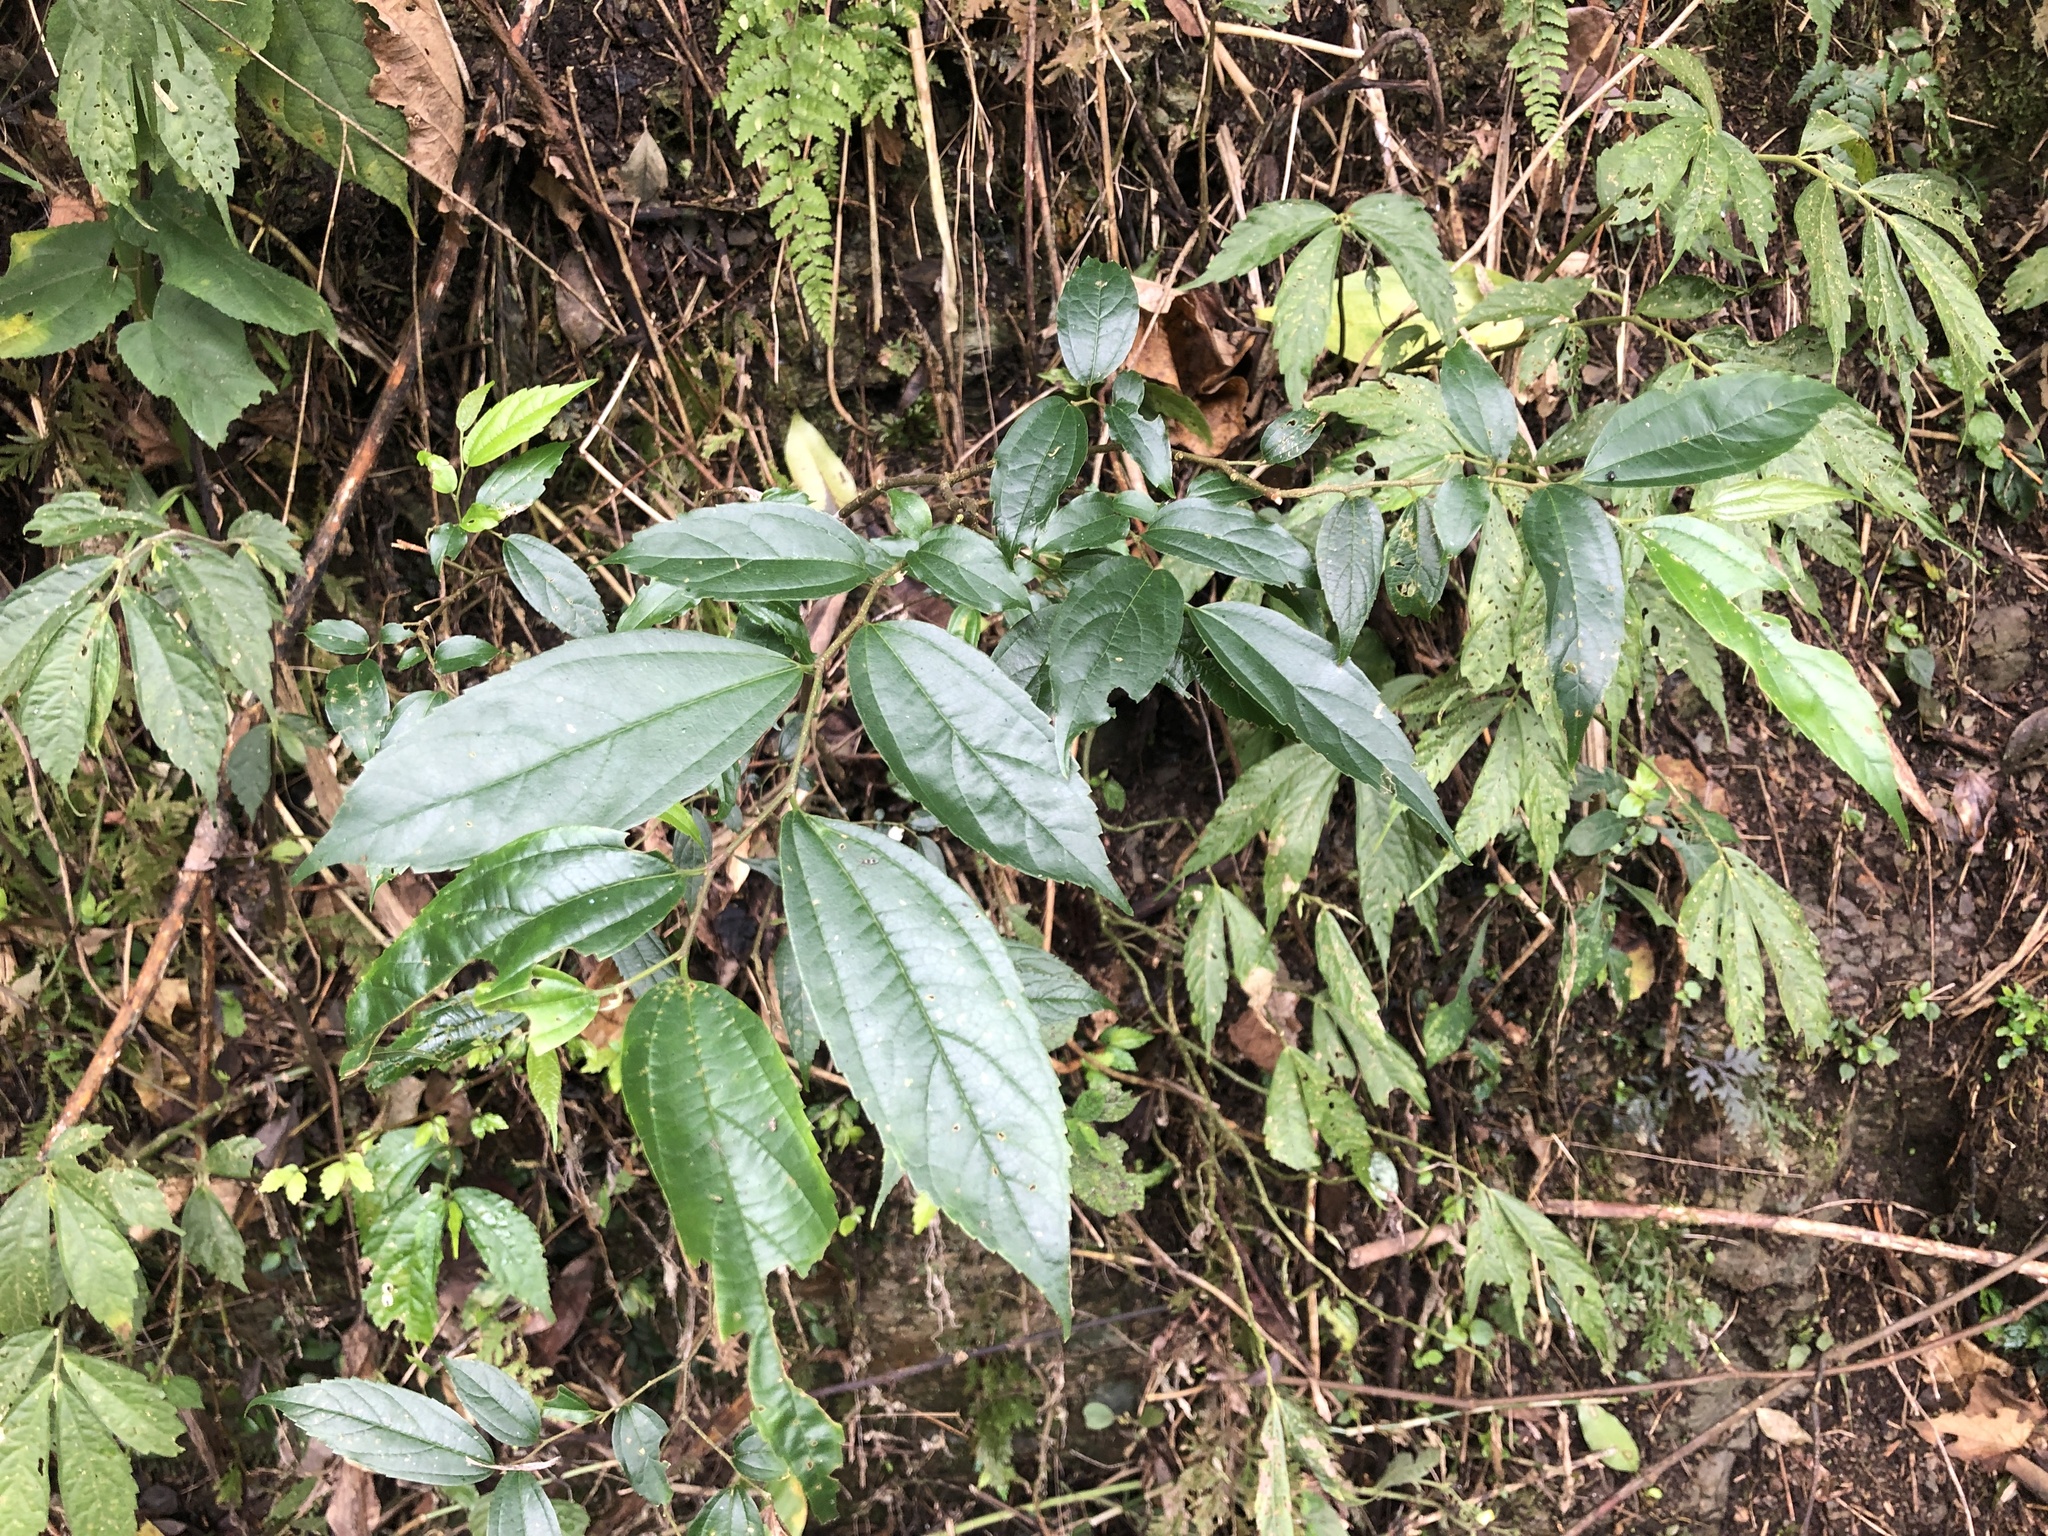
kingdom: Plantae
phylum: Tracheophyta
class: Magnoliopsida
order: Rosales
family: Cannabaceae
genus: Celtis
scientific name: Celtis tetrandra
